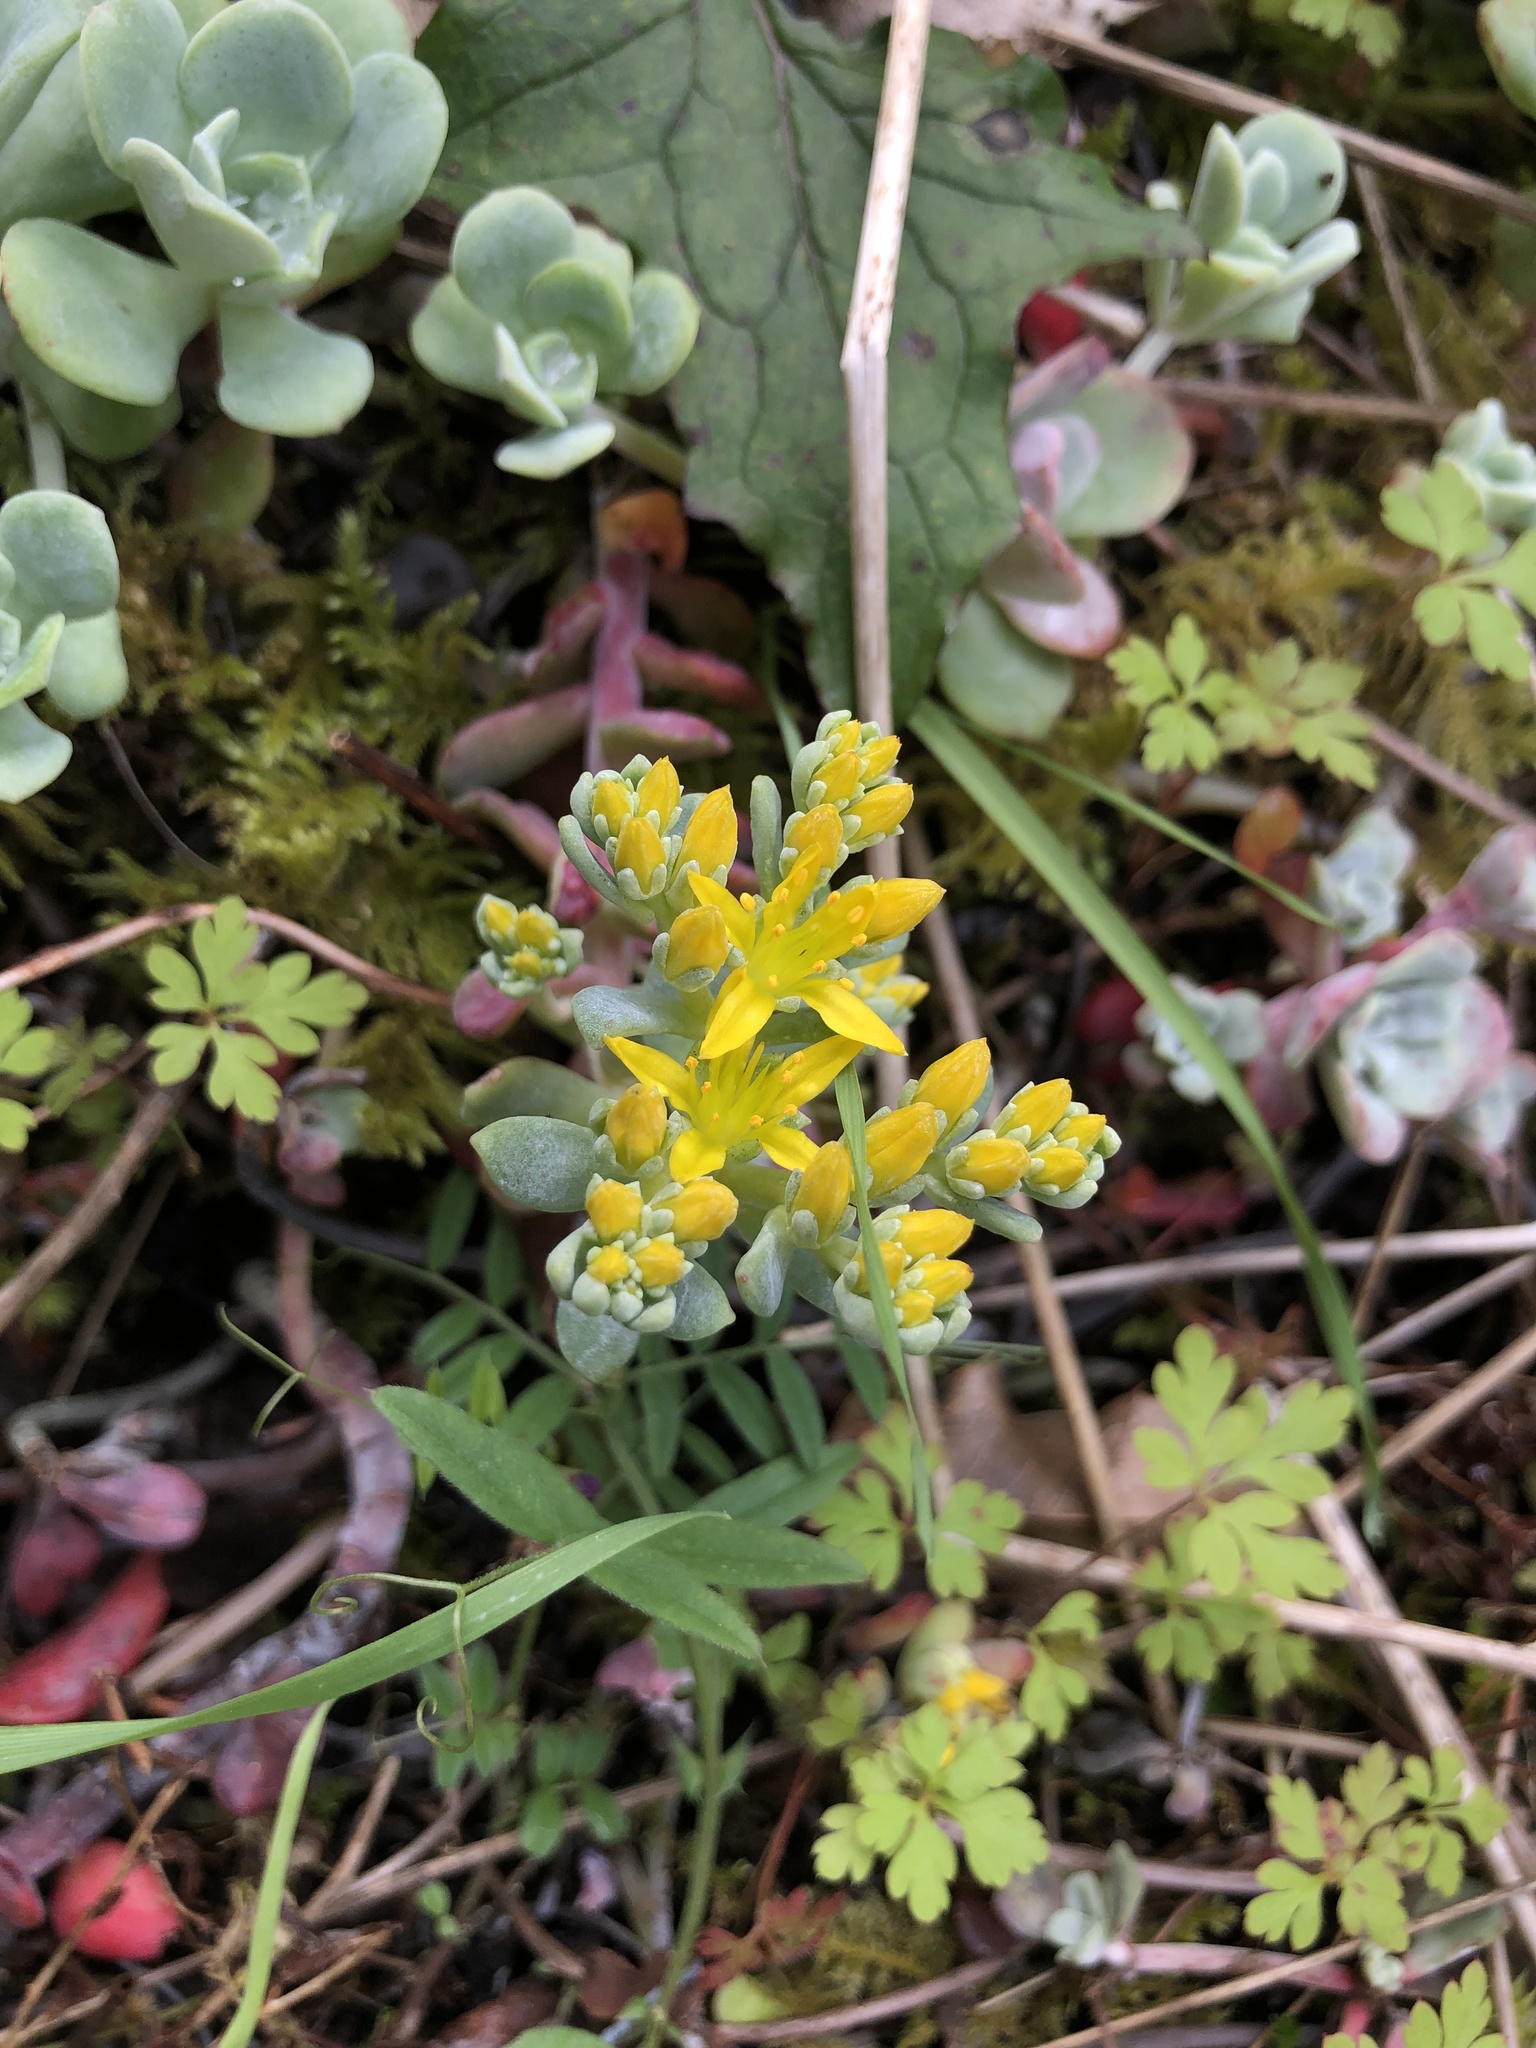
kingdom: Plantae
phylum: Tracheophyta
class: Magnoliopsida
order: Saxifragales
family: Crassulaceae
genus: Sedum
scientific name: Sedum spathulifolium
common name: Colorado stonecrop
